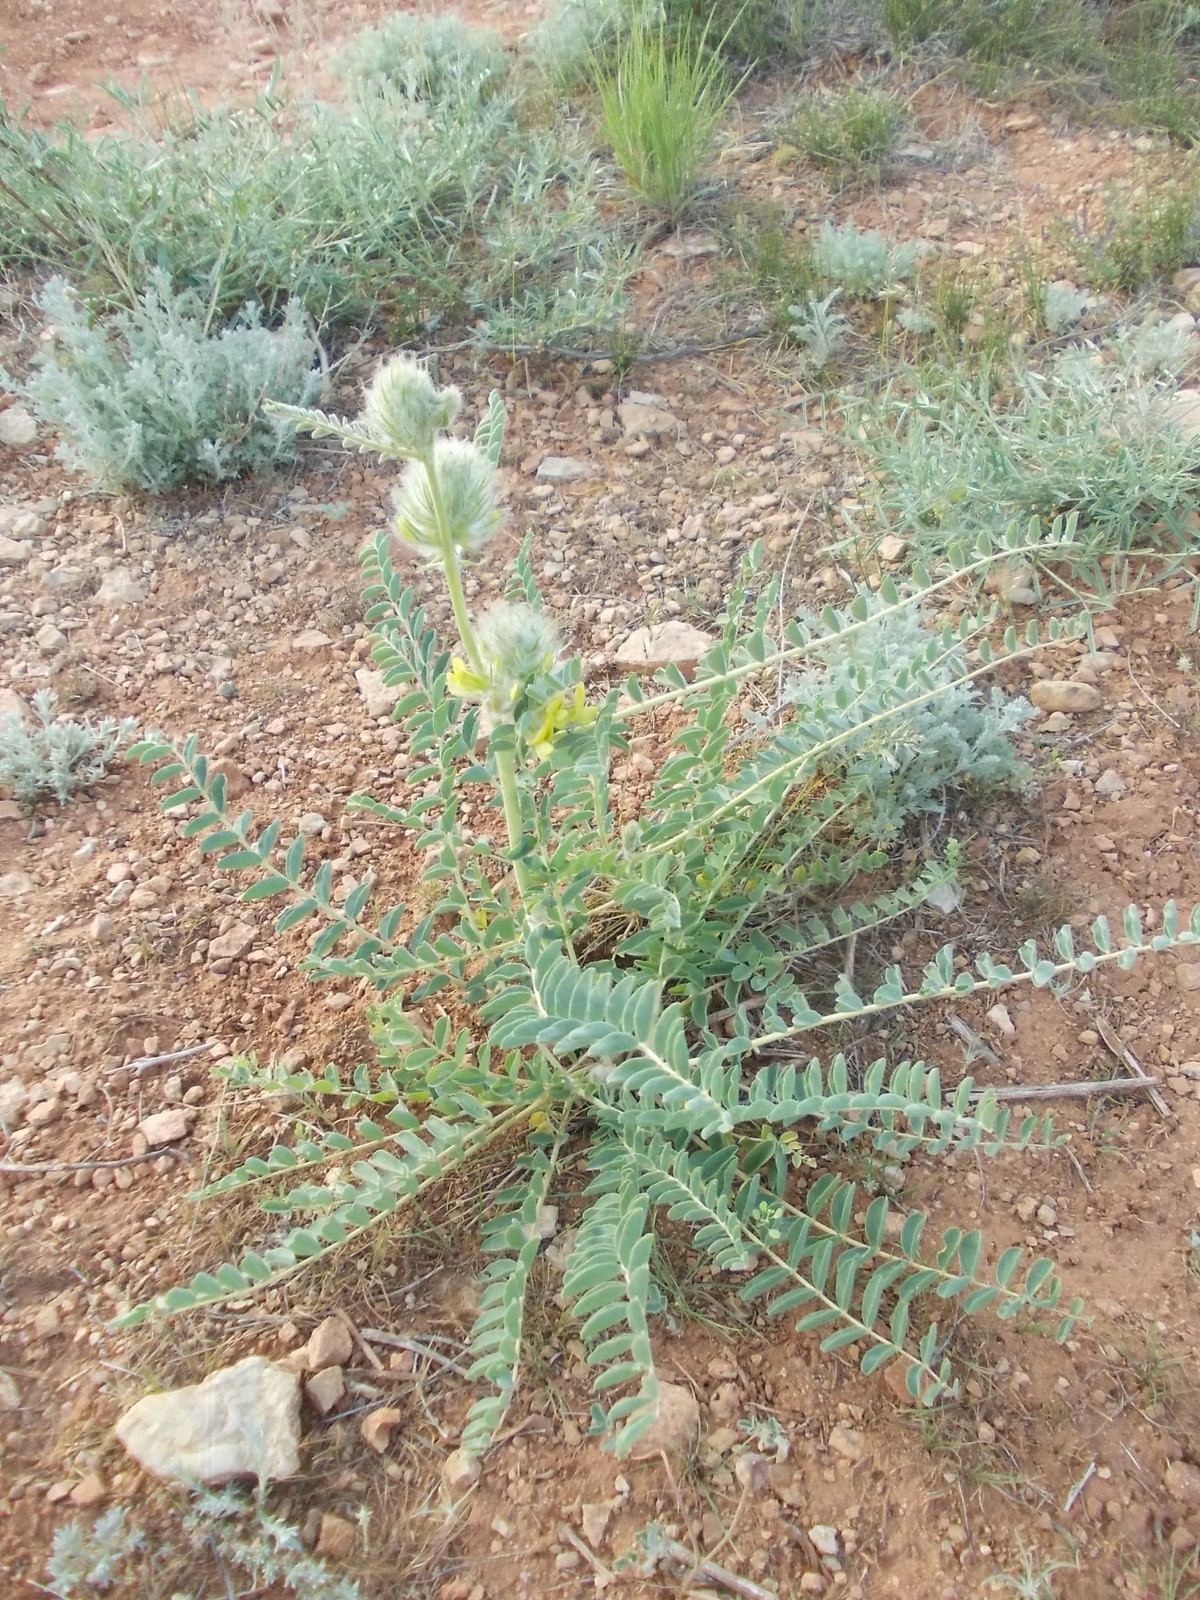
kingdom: Plantae
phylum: Tracheophyta
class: Magnoliopsida
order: Fabales
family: Fabaceae
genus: Astragalus
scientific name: Astragalus vulpinus
